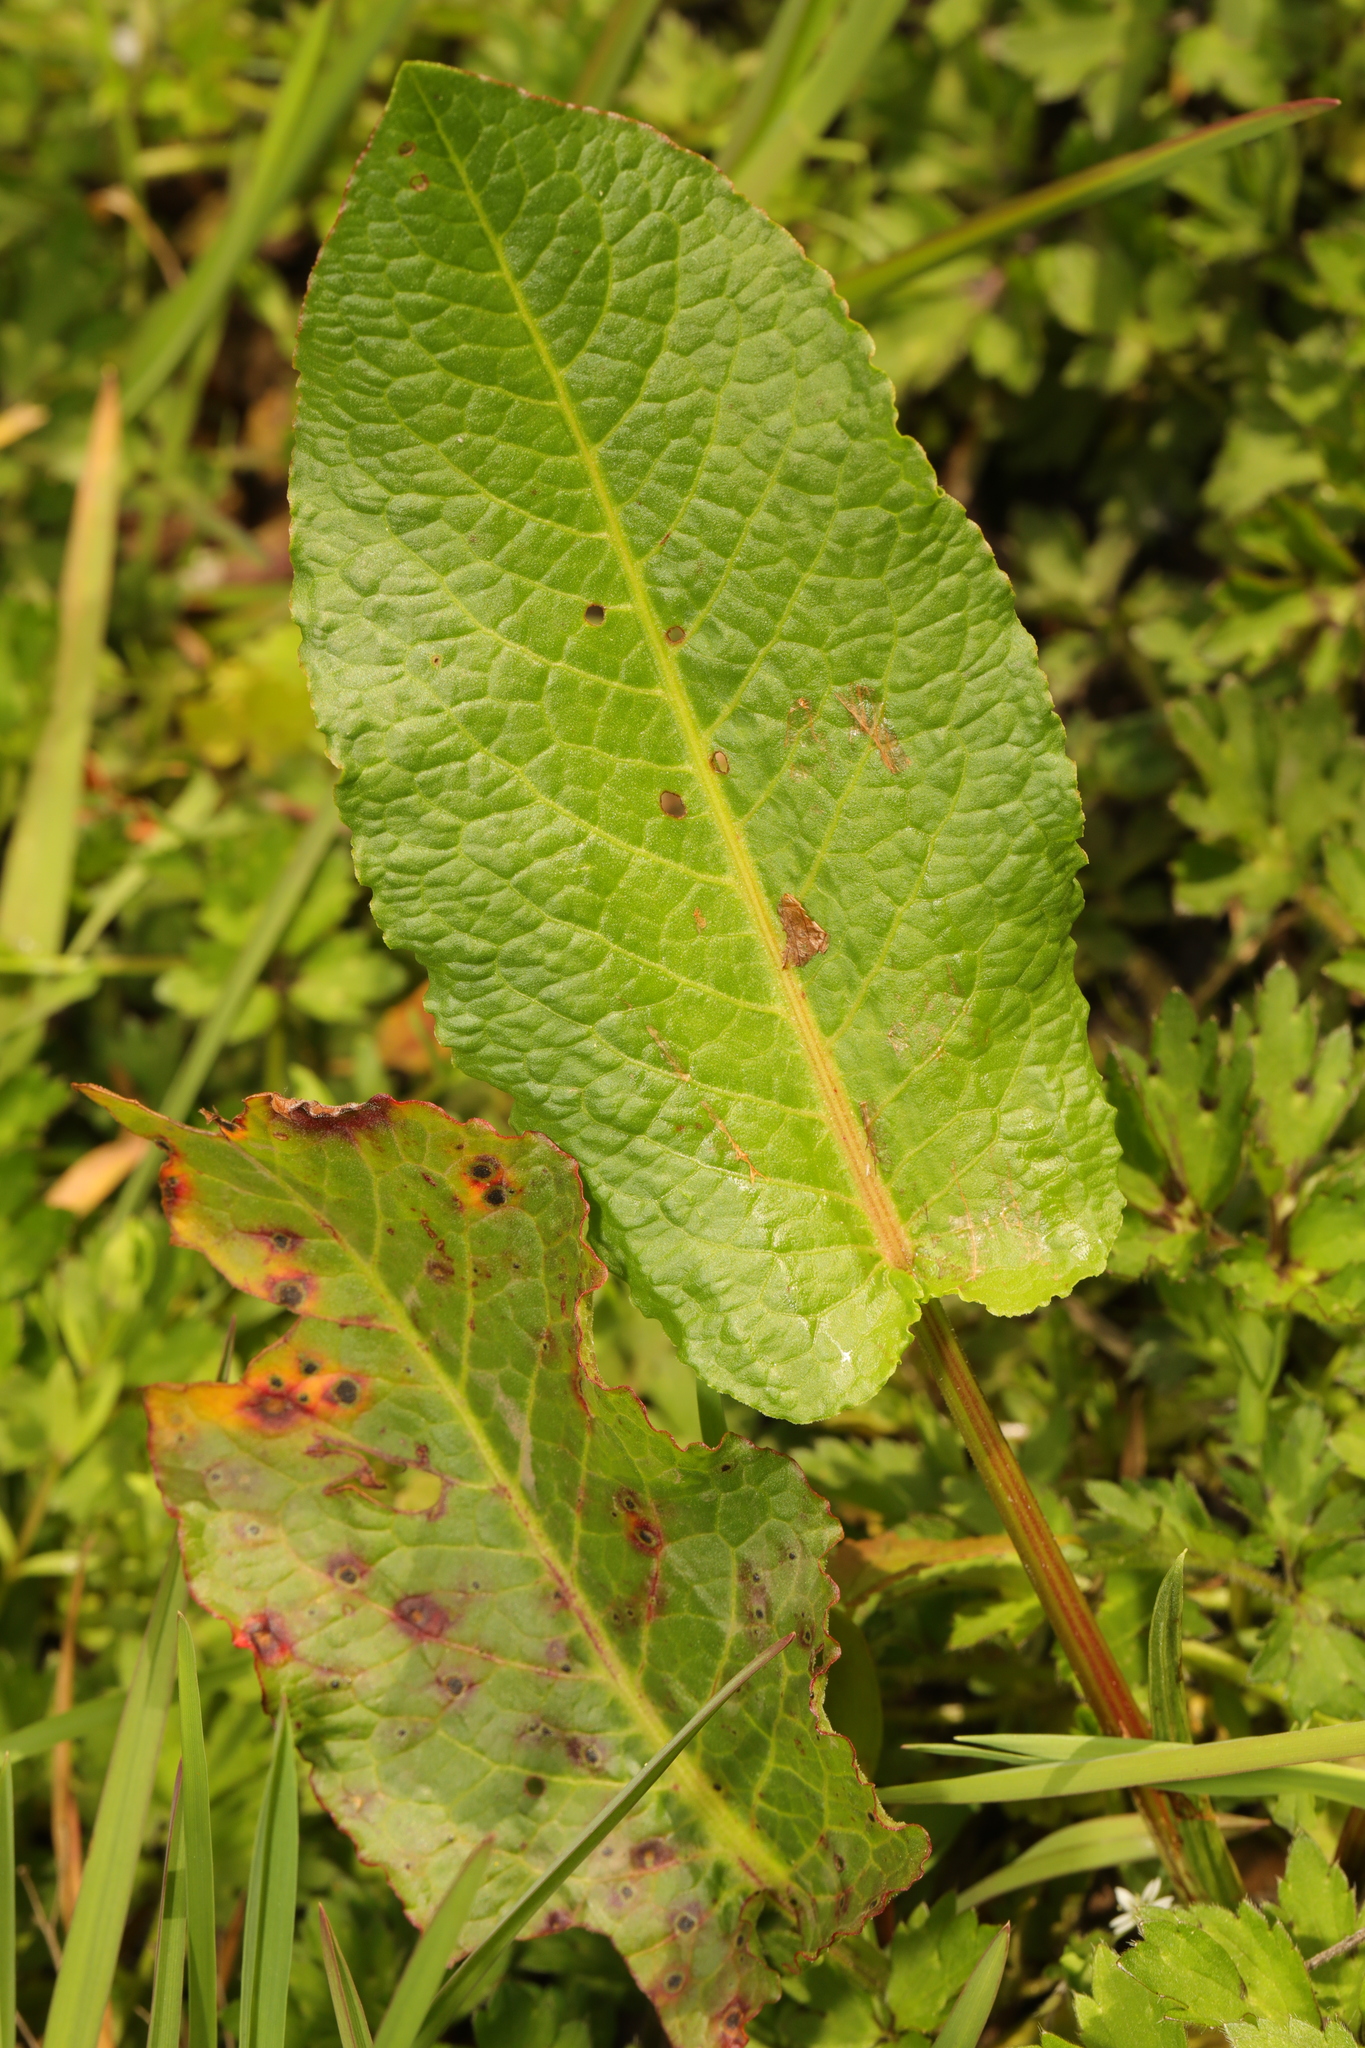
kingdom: Plantae
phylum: Tracheophyta
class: Magnoliopsida
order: Caryophyllales
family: Polygonaceae
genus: Rumex
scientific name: Rumex obtusifolius
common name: Bitter dock
